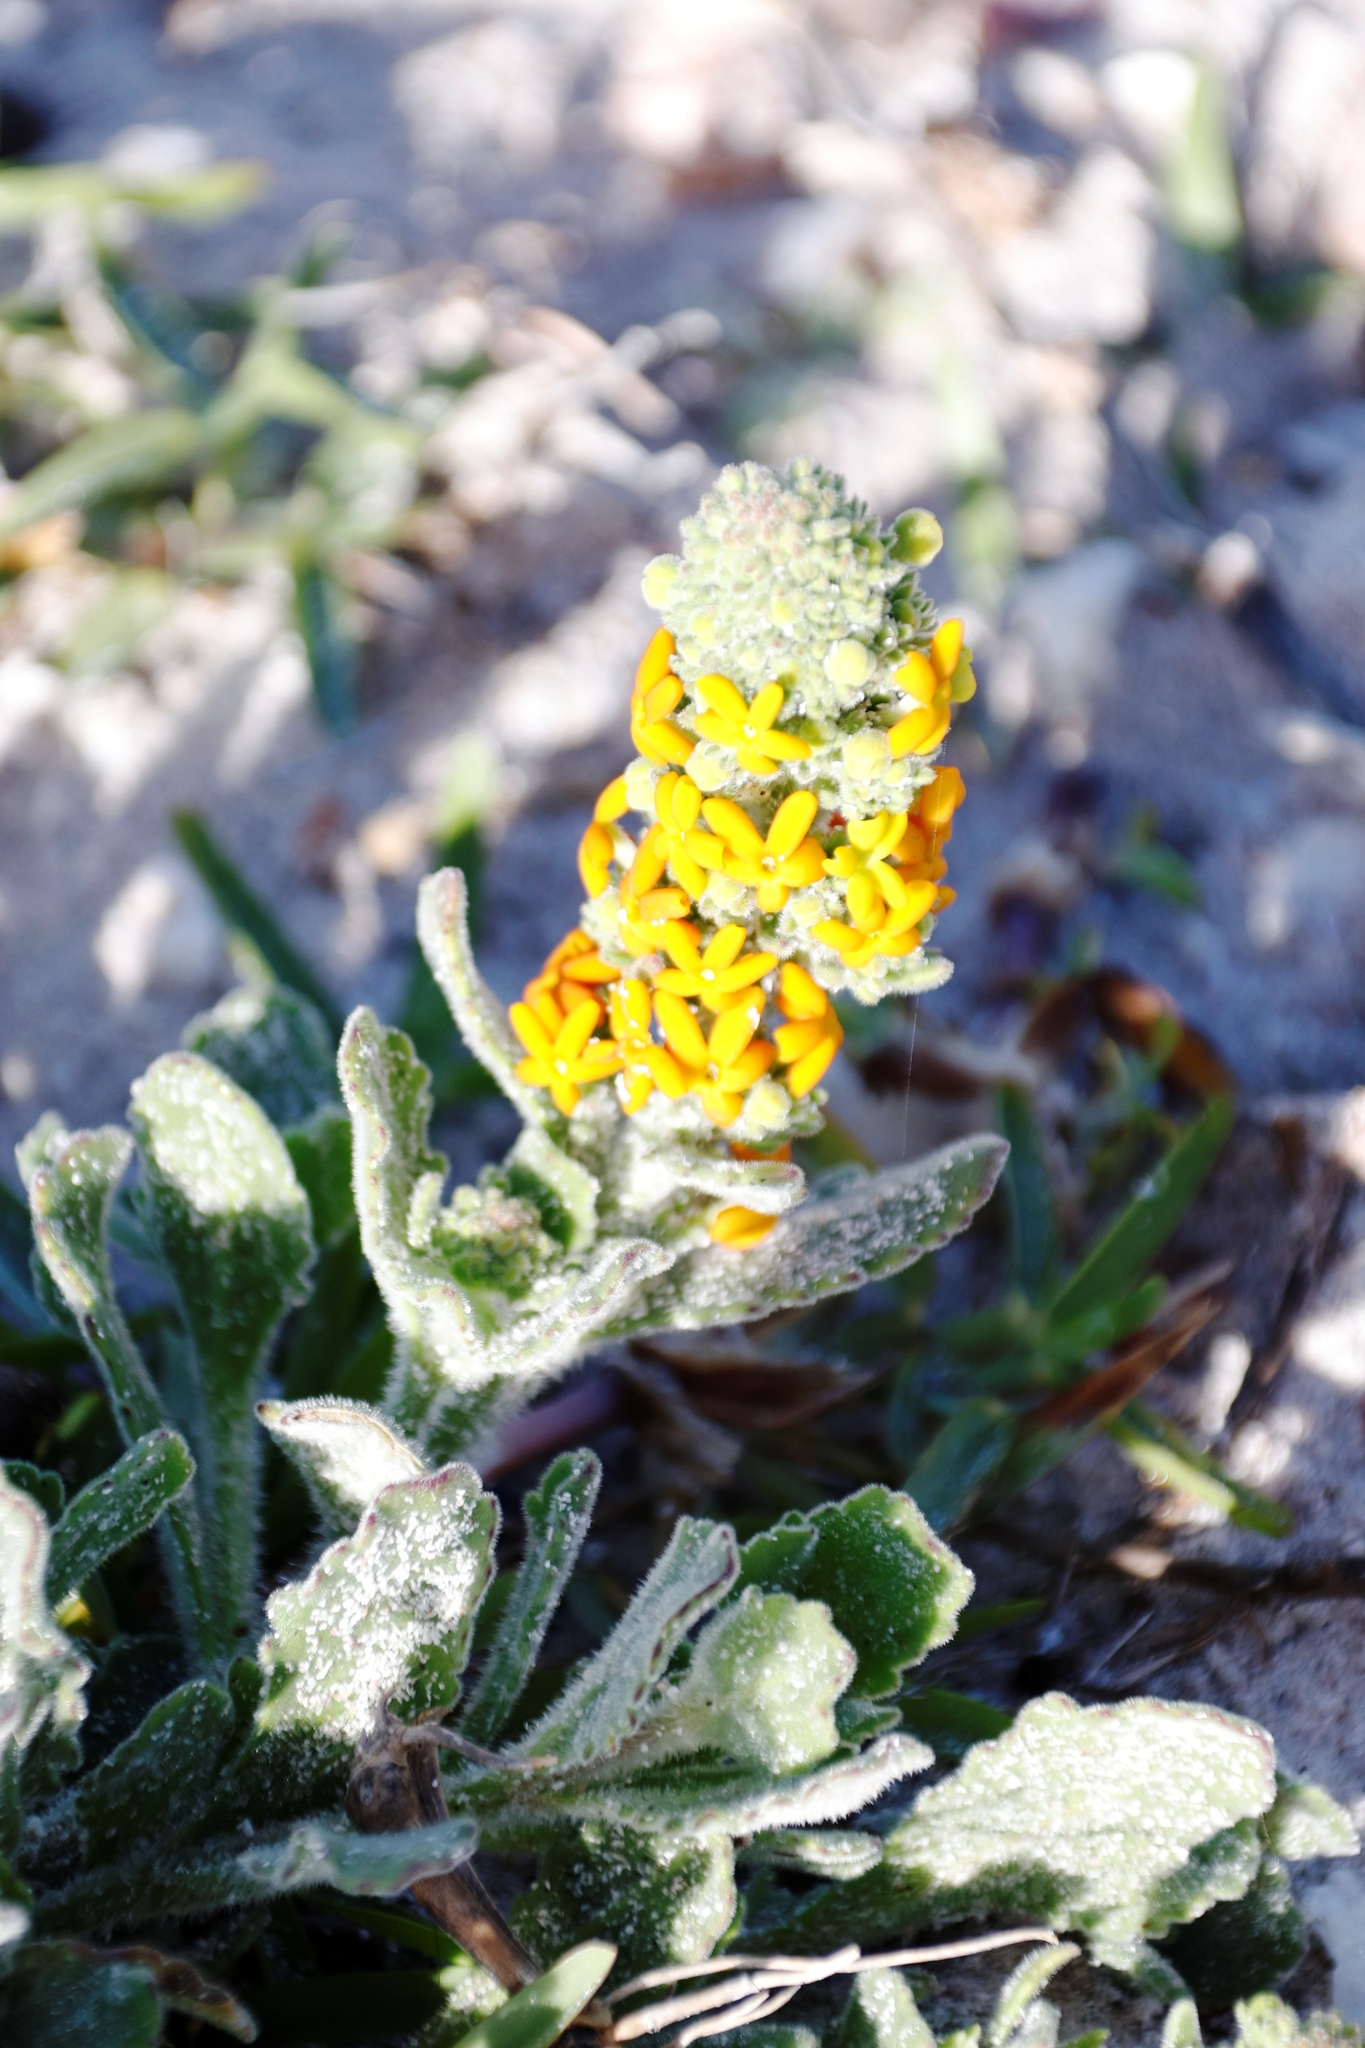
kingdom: Plantae
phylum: Tracheophyta
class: Magnoliopsida
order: Lamiales
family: Scrophulariaceae
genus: Manulea
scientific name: Manulea tomentosa
